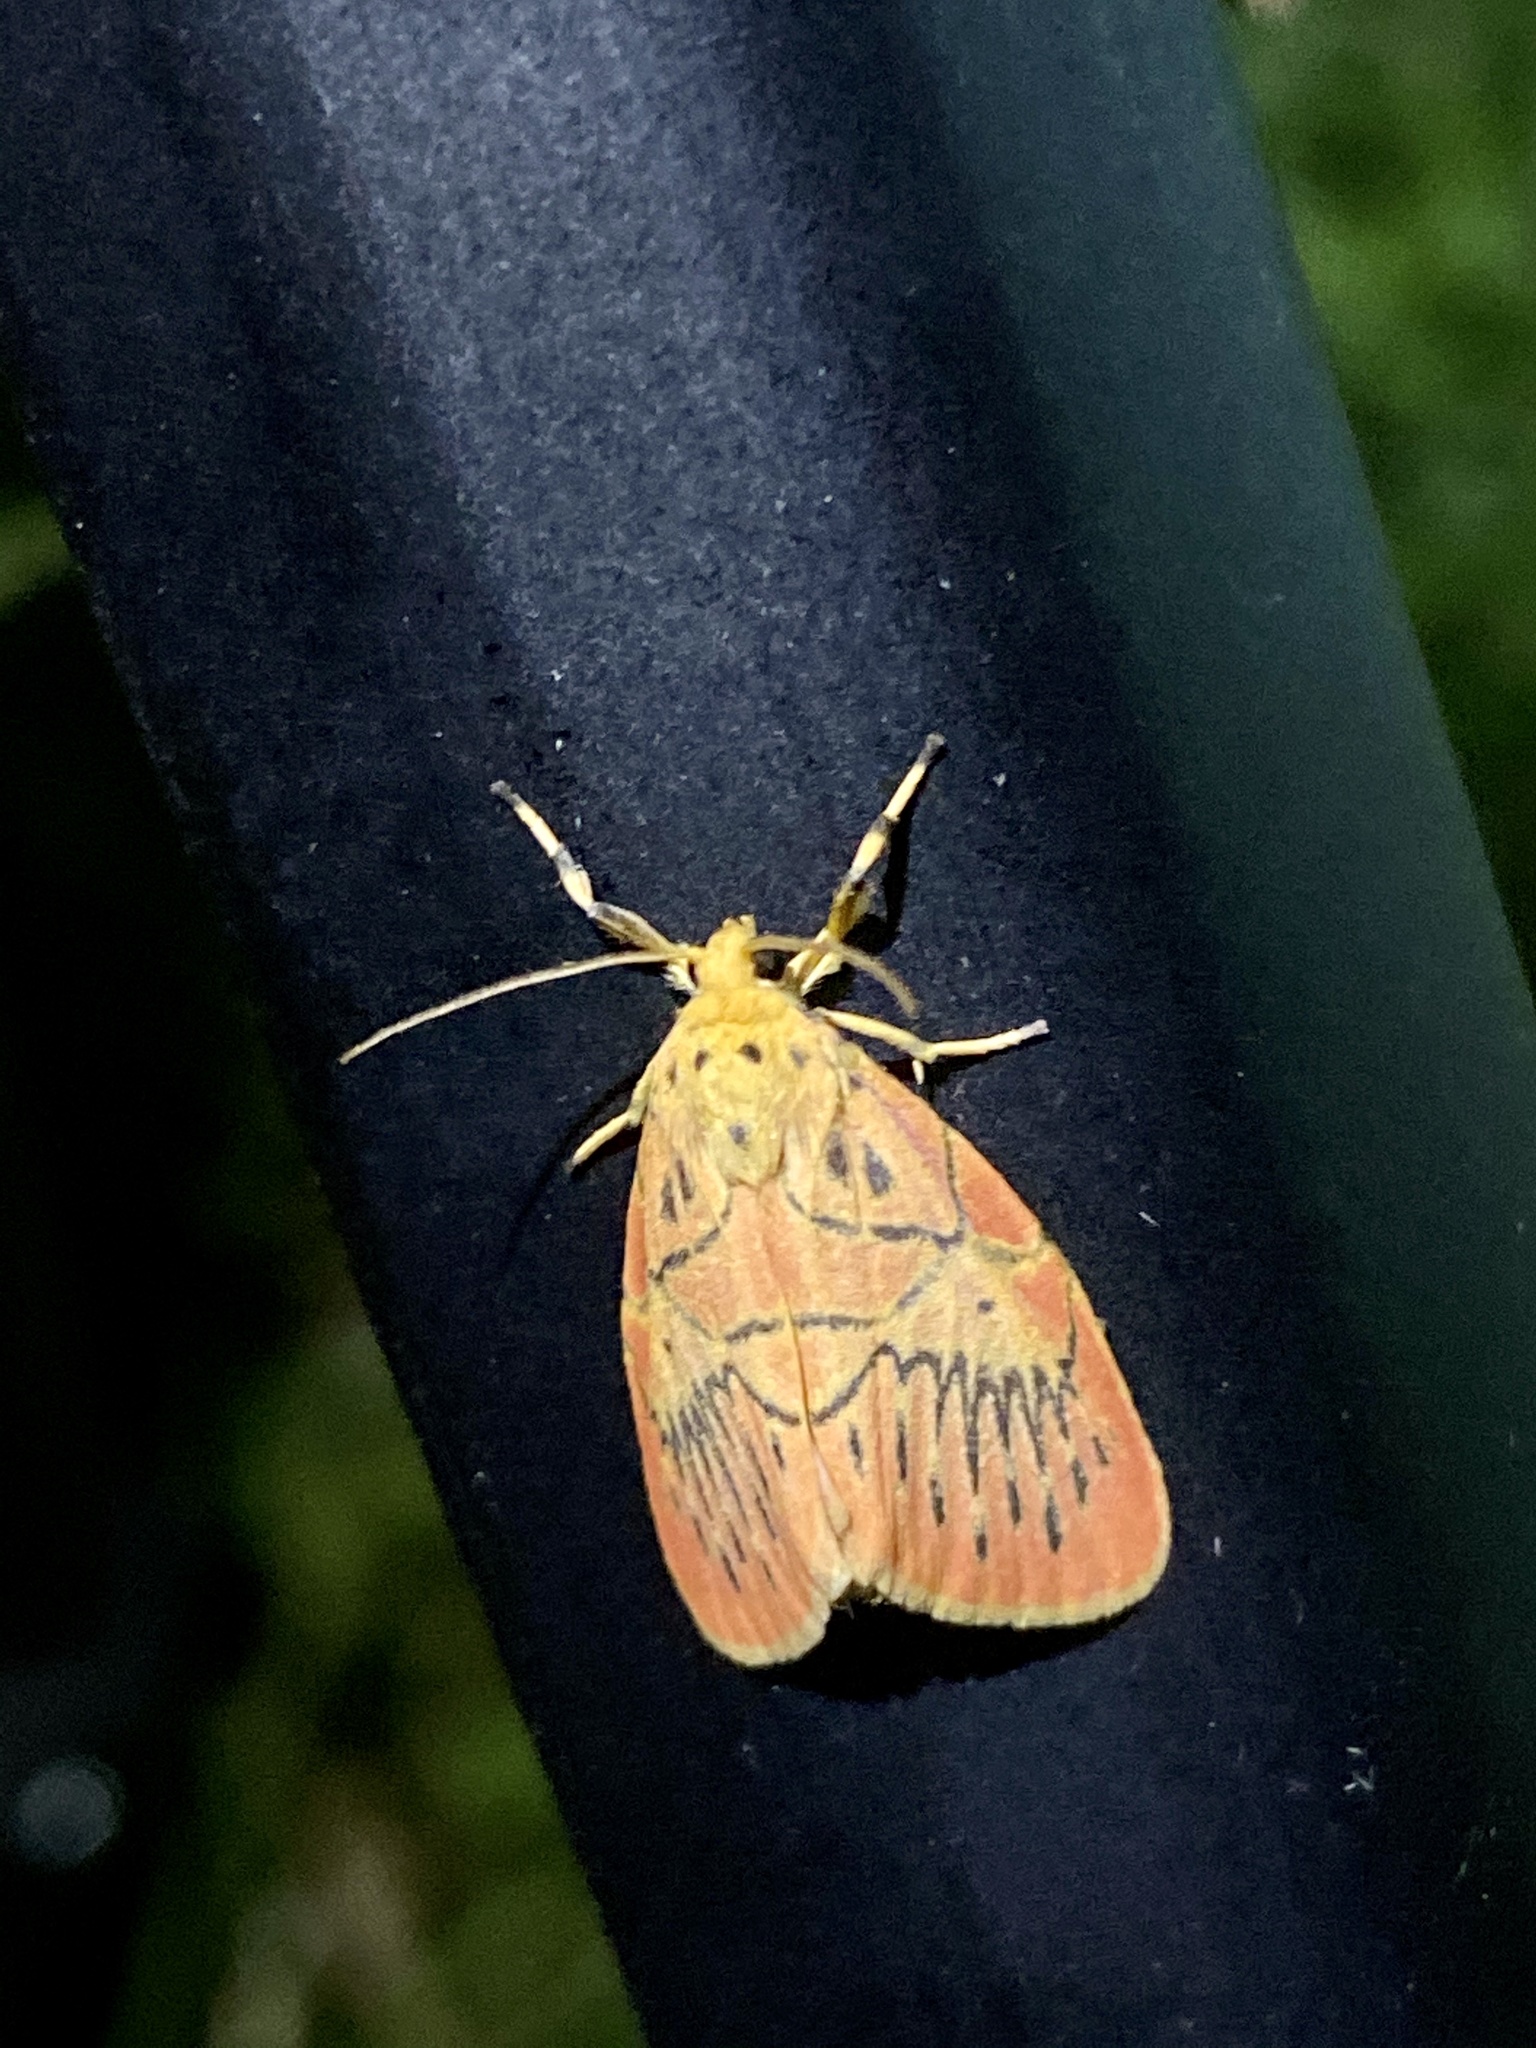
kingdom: Animalia
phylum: Arthropoda
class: Insecta
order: Lepidoptera
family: Erebidae
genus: Aberrasine
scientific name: Aberrasine aberrans
